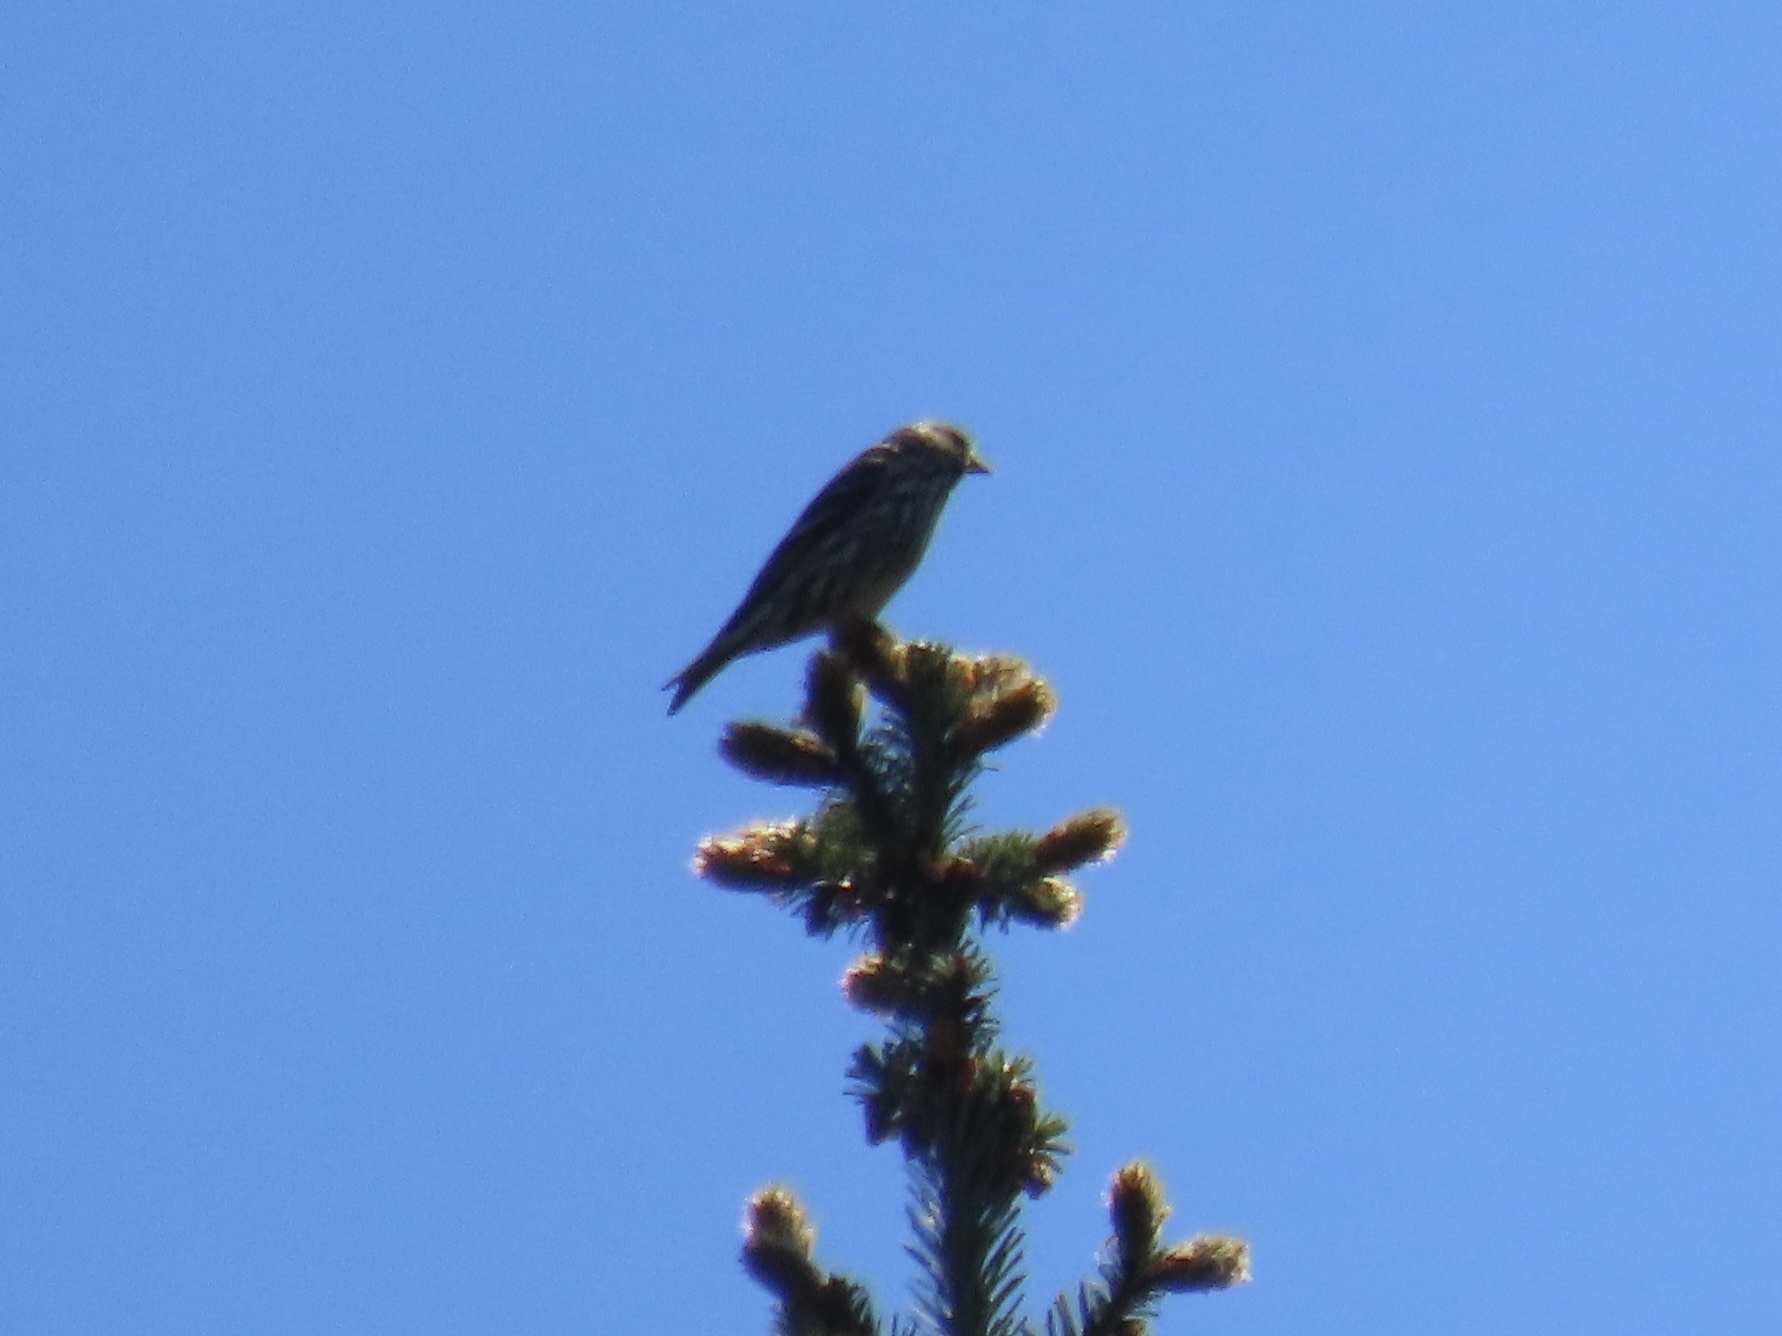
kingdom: Animalia
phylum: Chordata
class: Aves
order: Passeriformes
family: Fringillidae
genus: Spinus
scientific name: Spinus pinus
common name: Pine siskin
